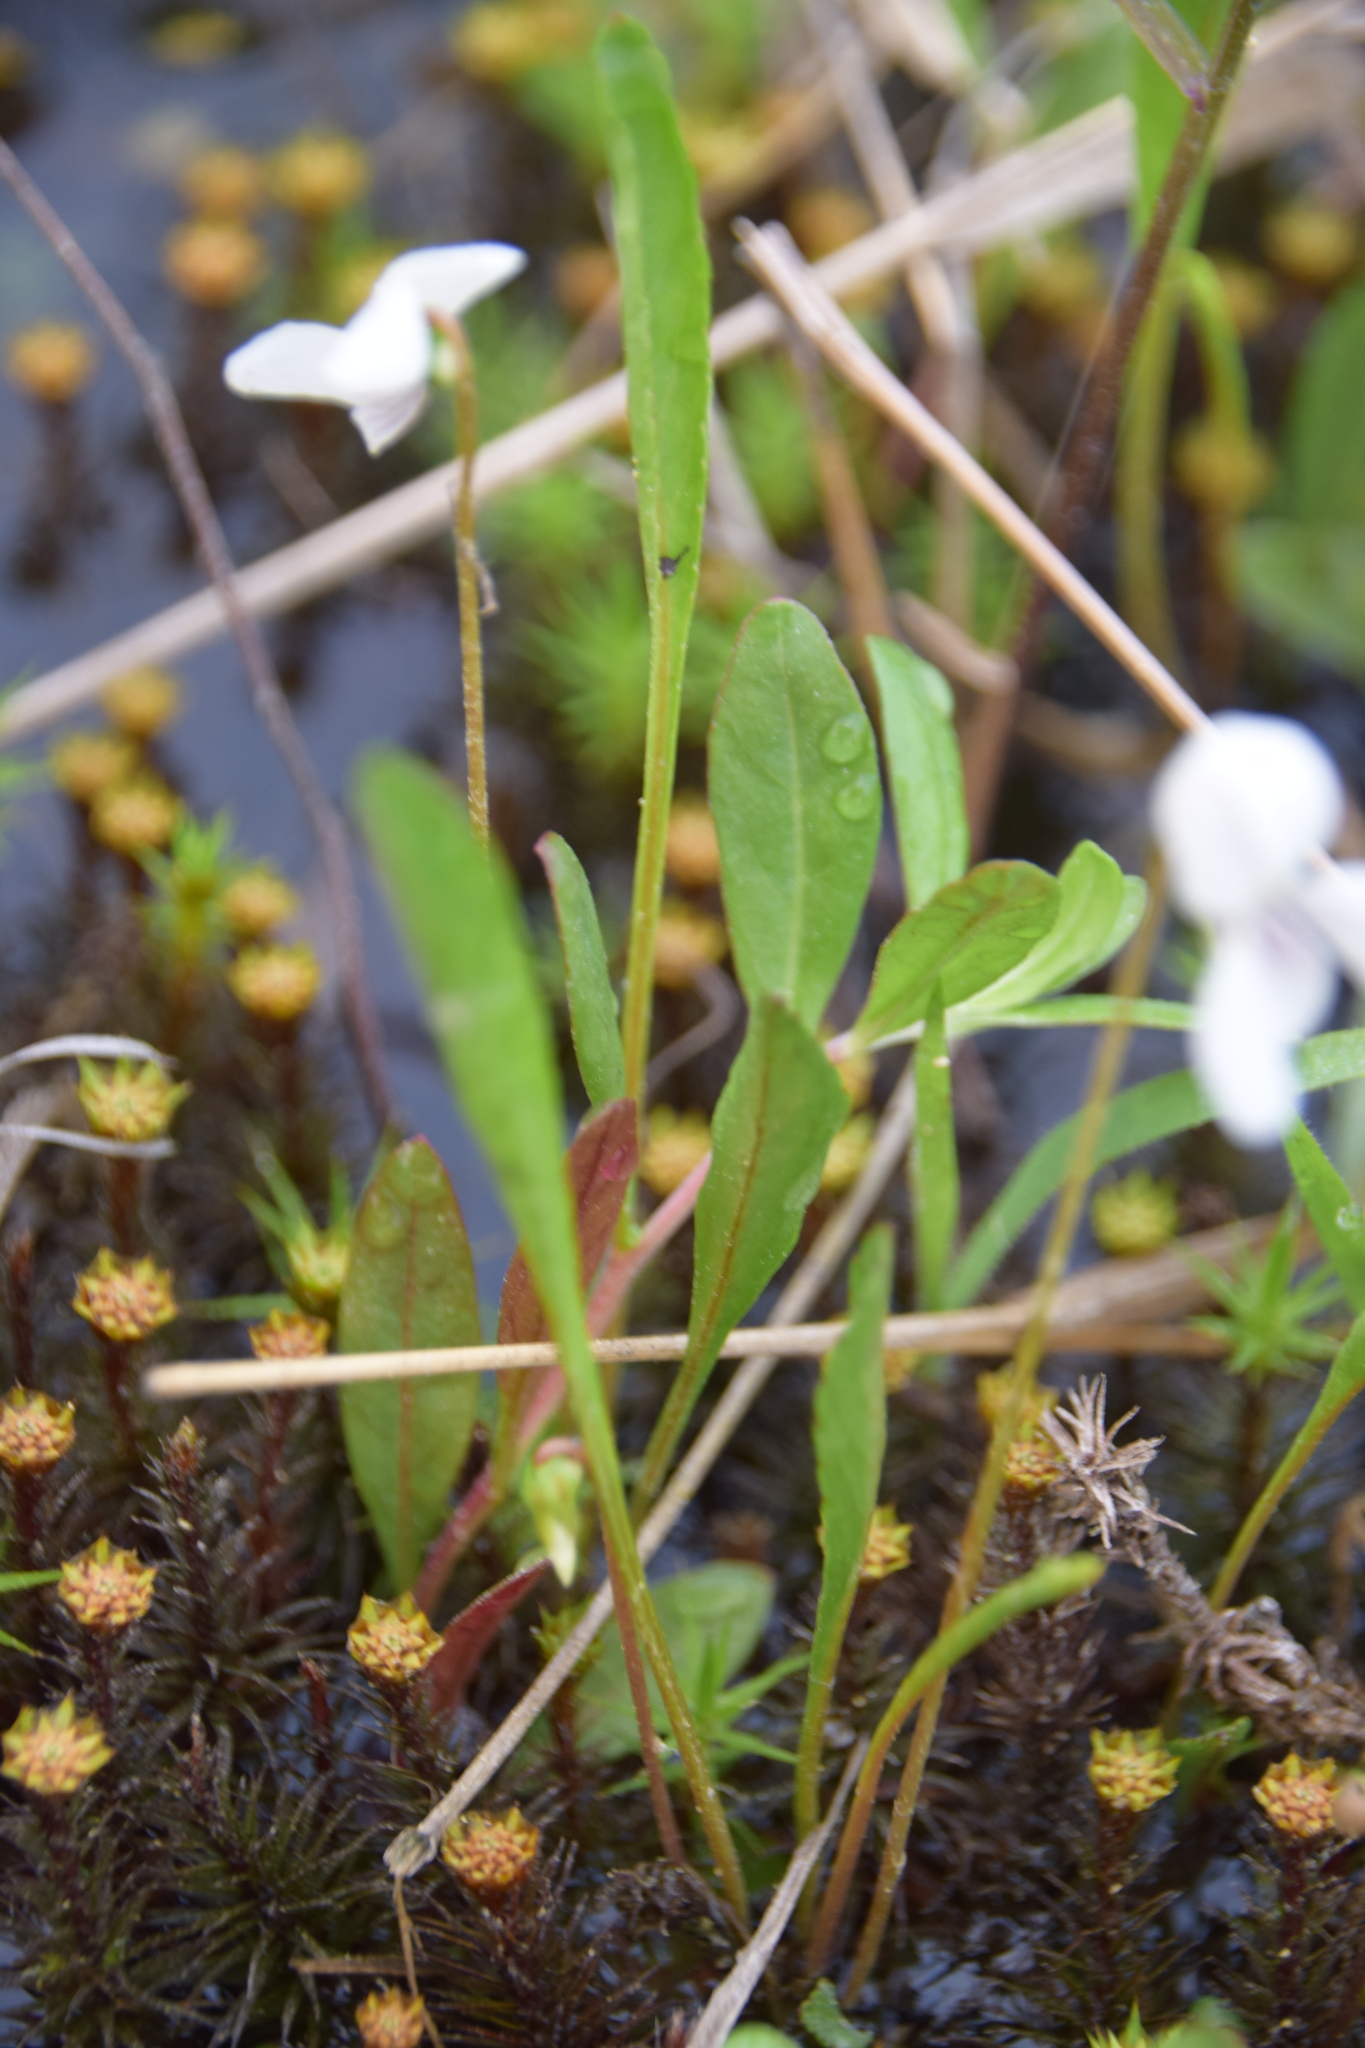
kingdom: Plantae
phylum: Tracheophyta
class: Magnoliopsida
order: Malpighiales
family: Violaceae
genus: Viola
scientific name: Viola lanceolata
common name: Bog white violet
